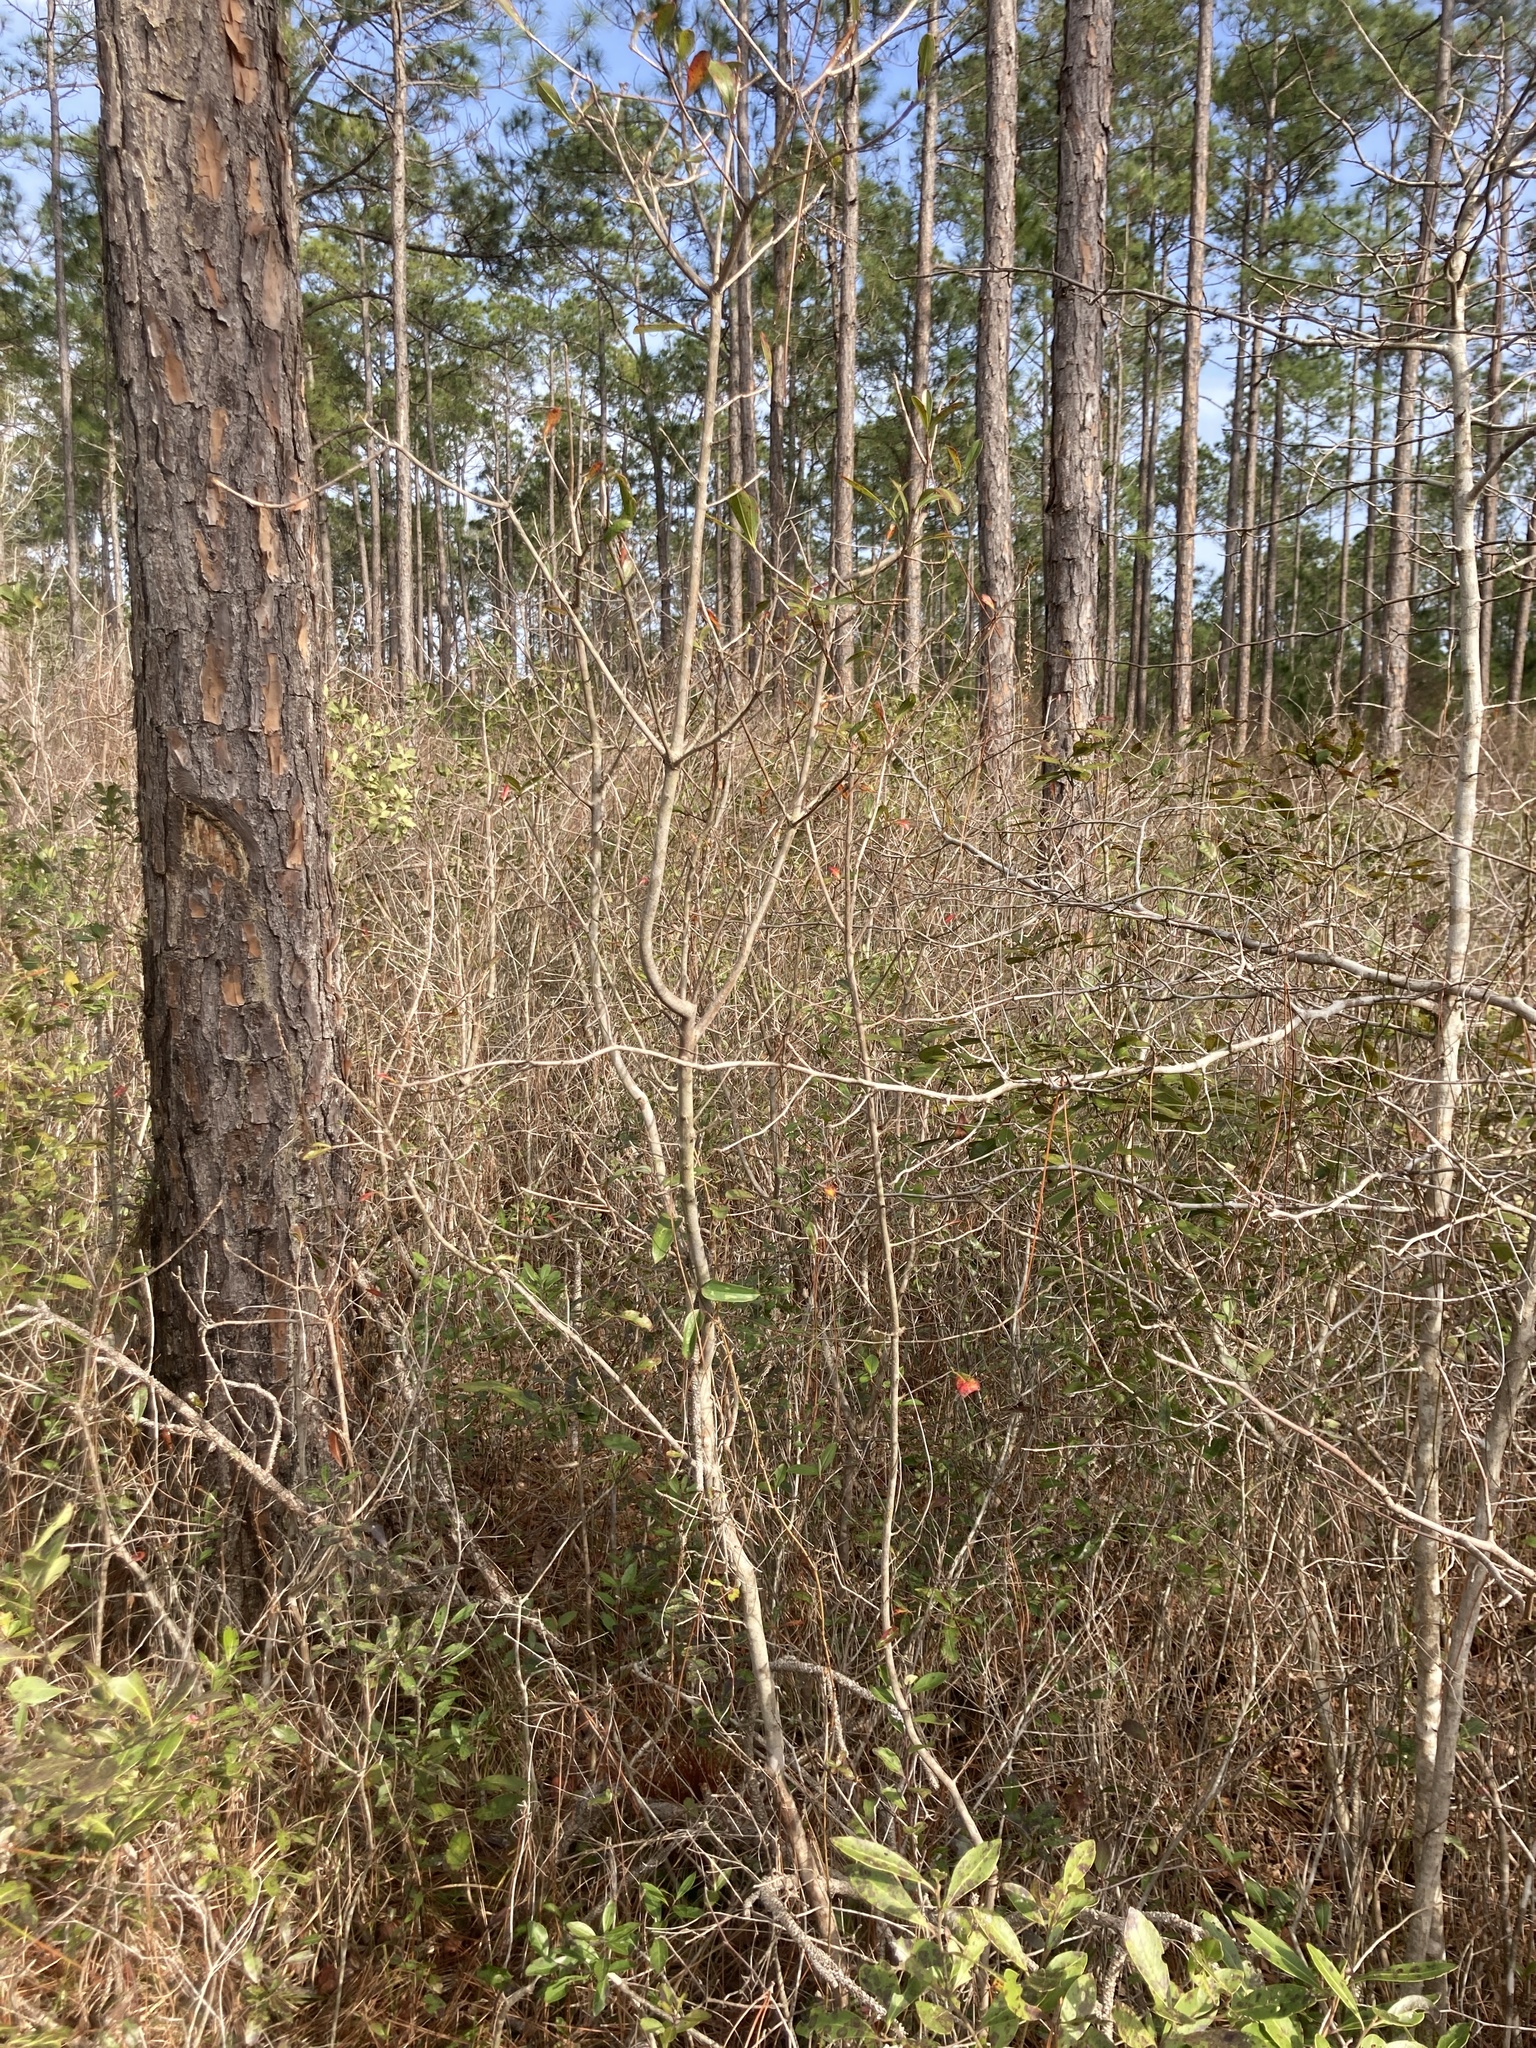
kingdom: Plantae
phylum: Tracheophyta
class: Magnoliopsida
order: Ericales
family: Cyrillaceae
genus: Cyrilla
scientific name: Cyrilla racemiflora
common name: Black titi
